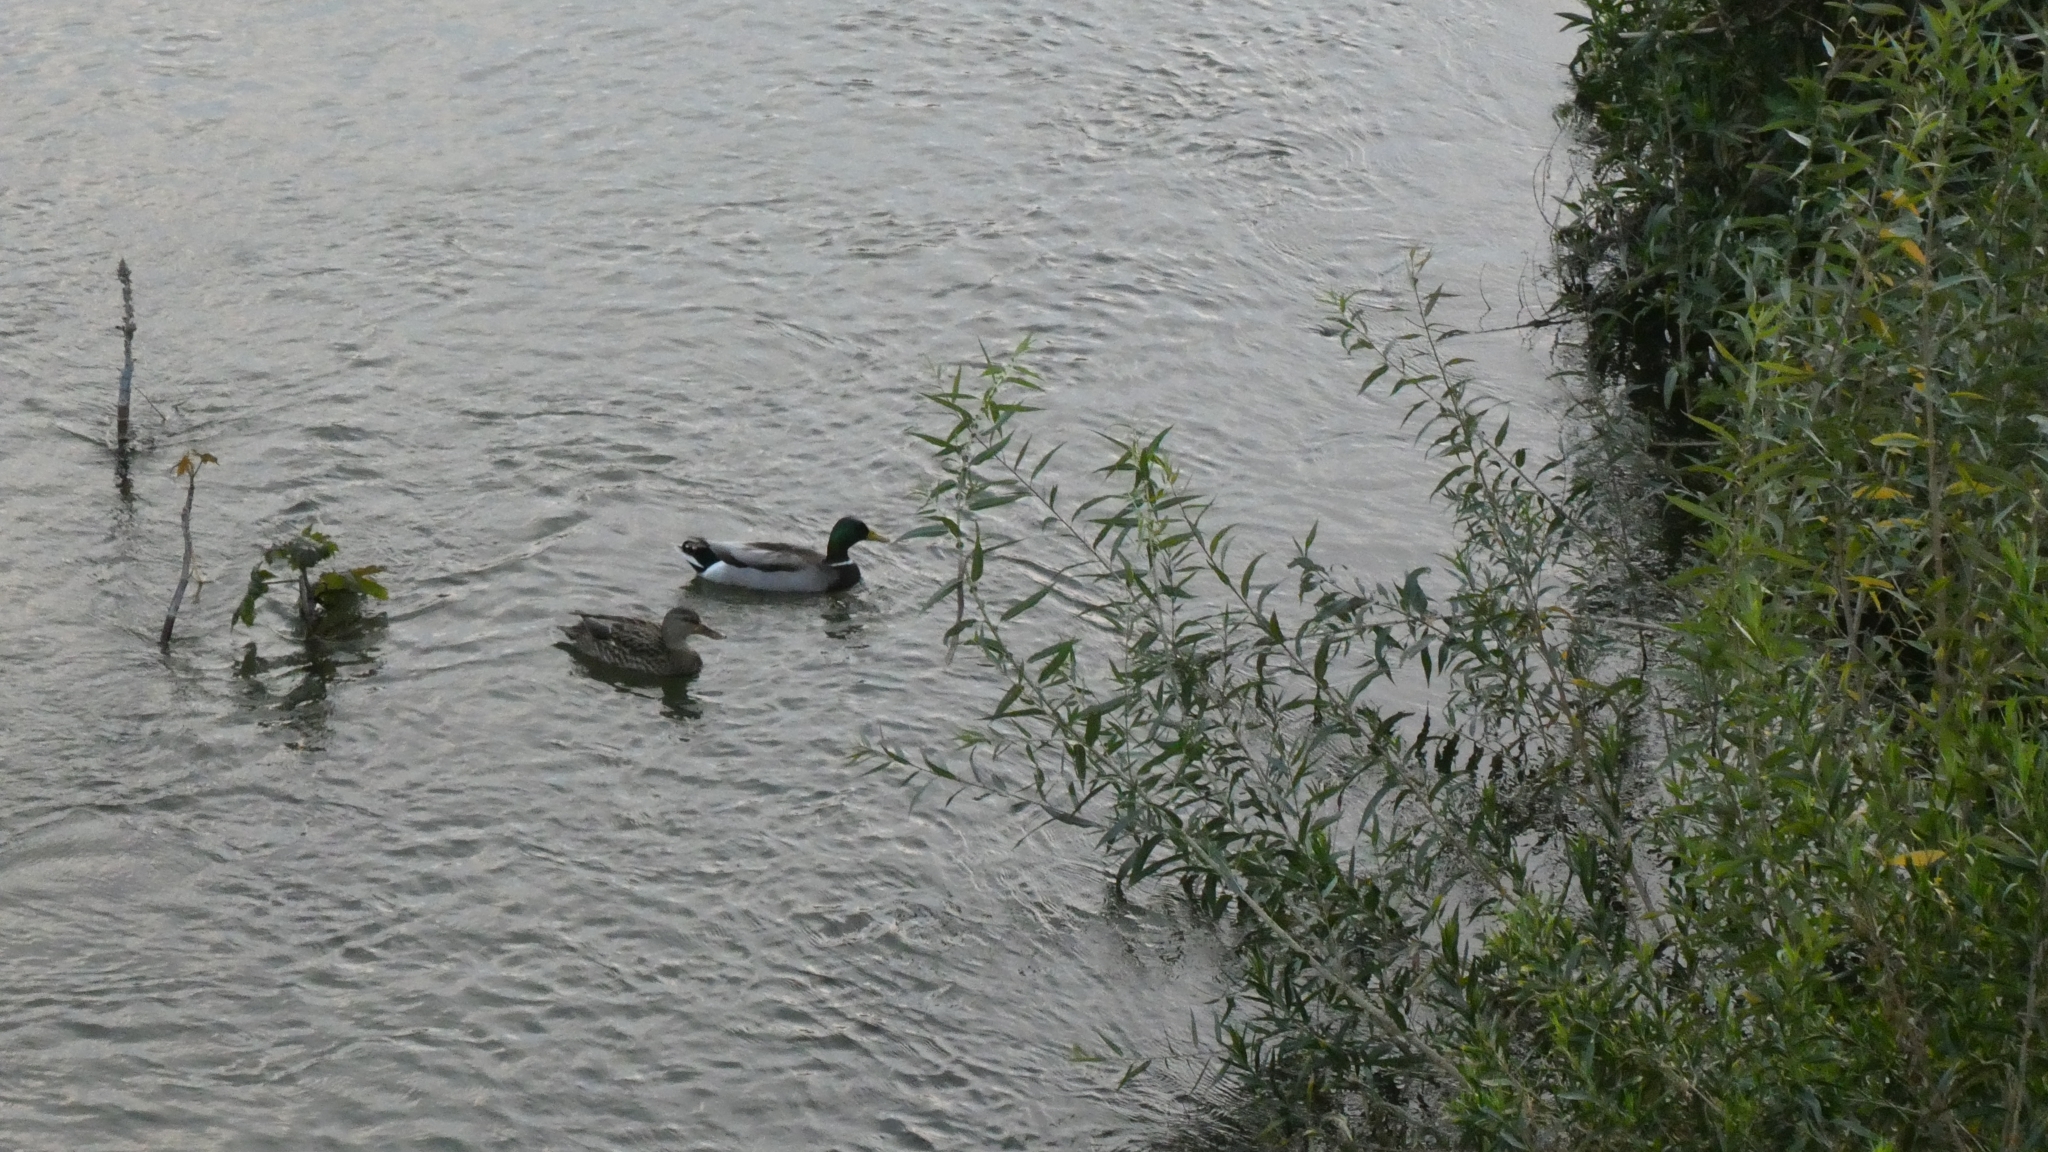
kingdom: Animalia
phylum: Chordata
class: Aves
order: Anseriformes
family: Anatidae
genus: Anas
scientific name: Anas platyrhynchos
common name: Mallard
